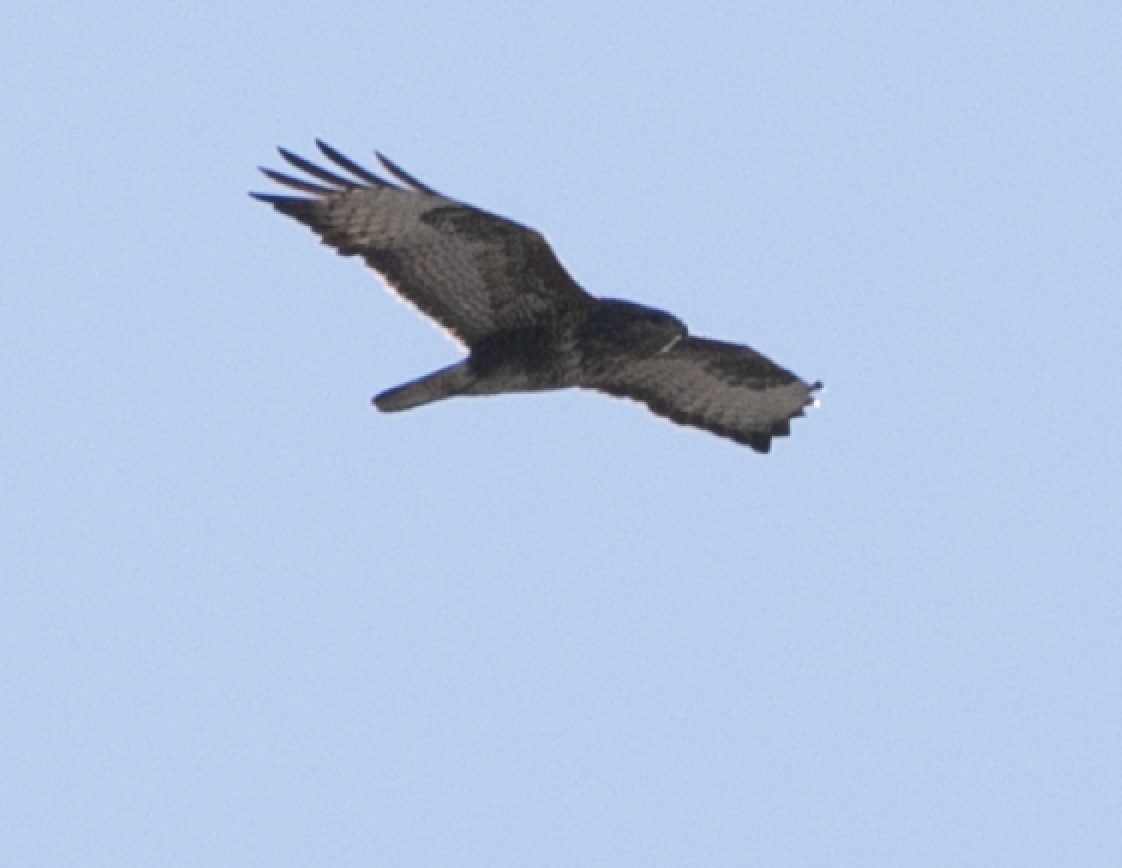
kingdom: Animalia
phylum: Chordata
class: Aves
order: Accipitriformes
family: Accipitridae
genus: Buteo
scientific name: Buteo buteo
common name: Common buzzard
